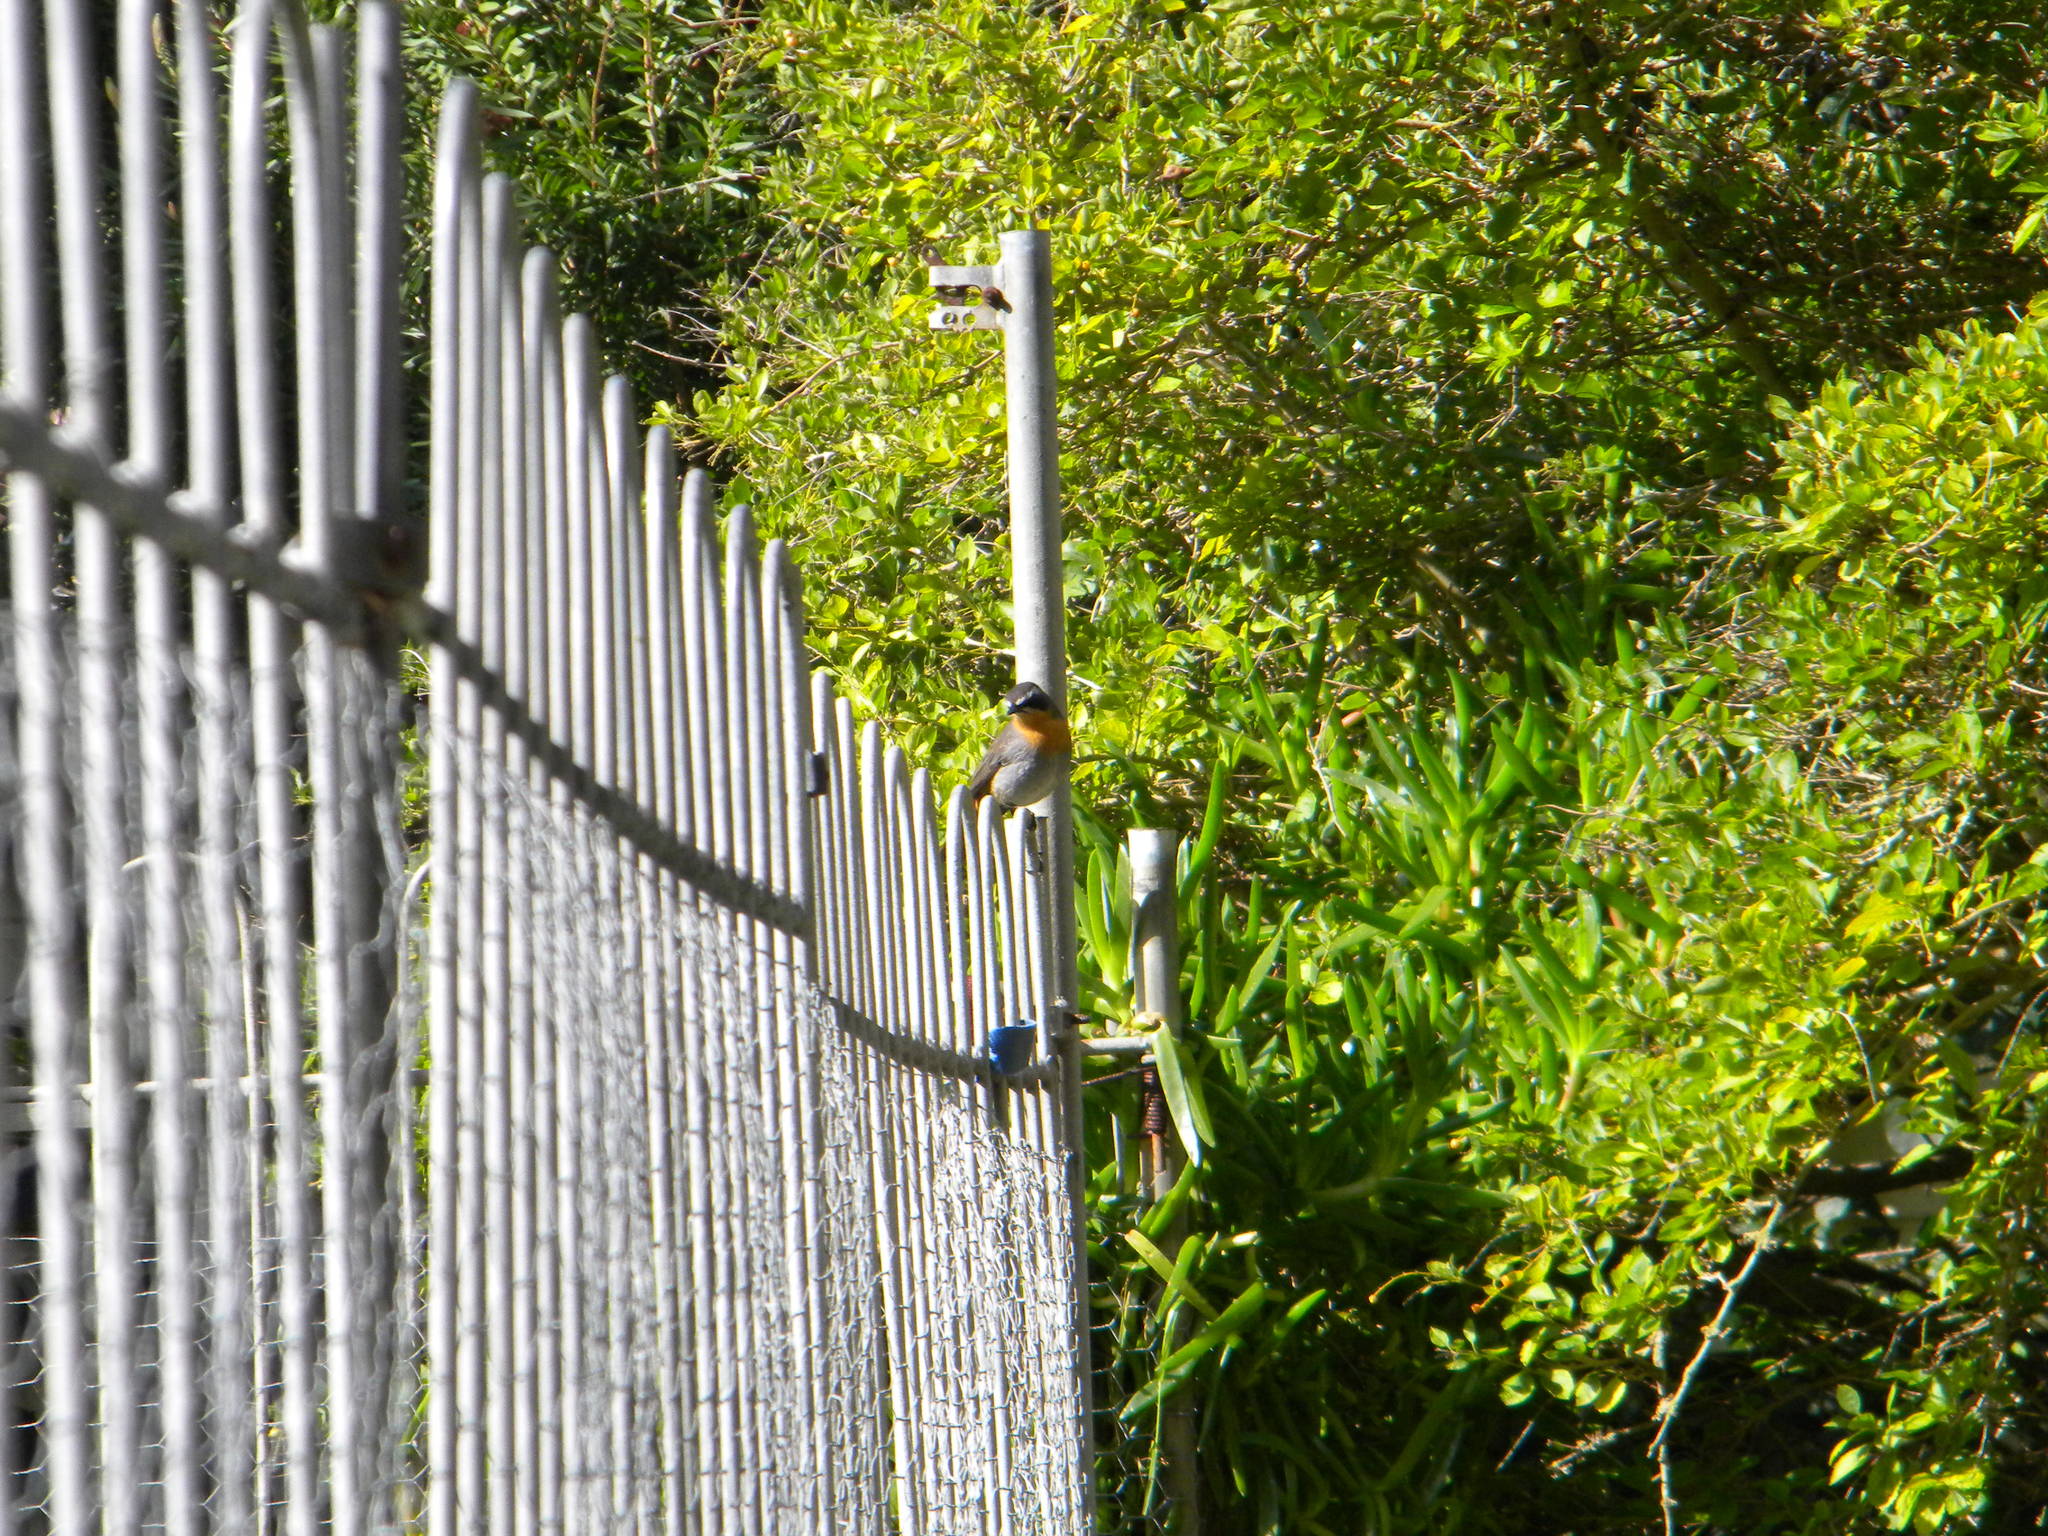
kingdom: Animalia
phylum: Chordata
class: Aves
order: Passeriformes
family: Muscicapidae
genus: Cossypha
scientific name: Cossypha caffra
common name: Cape robin-chat
